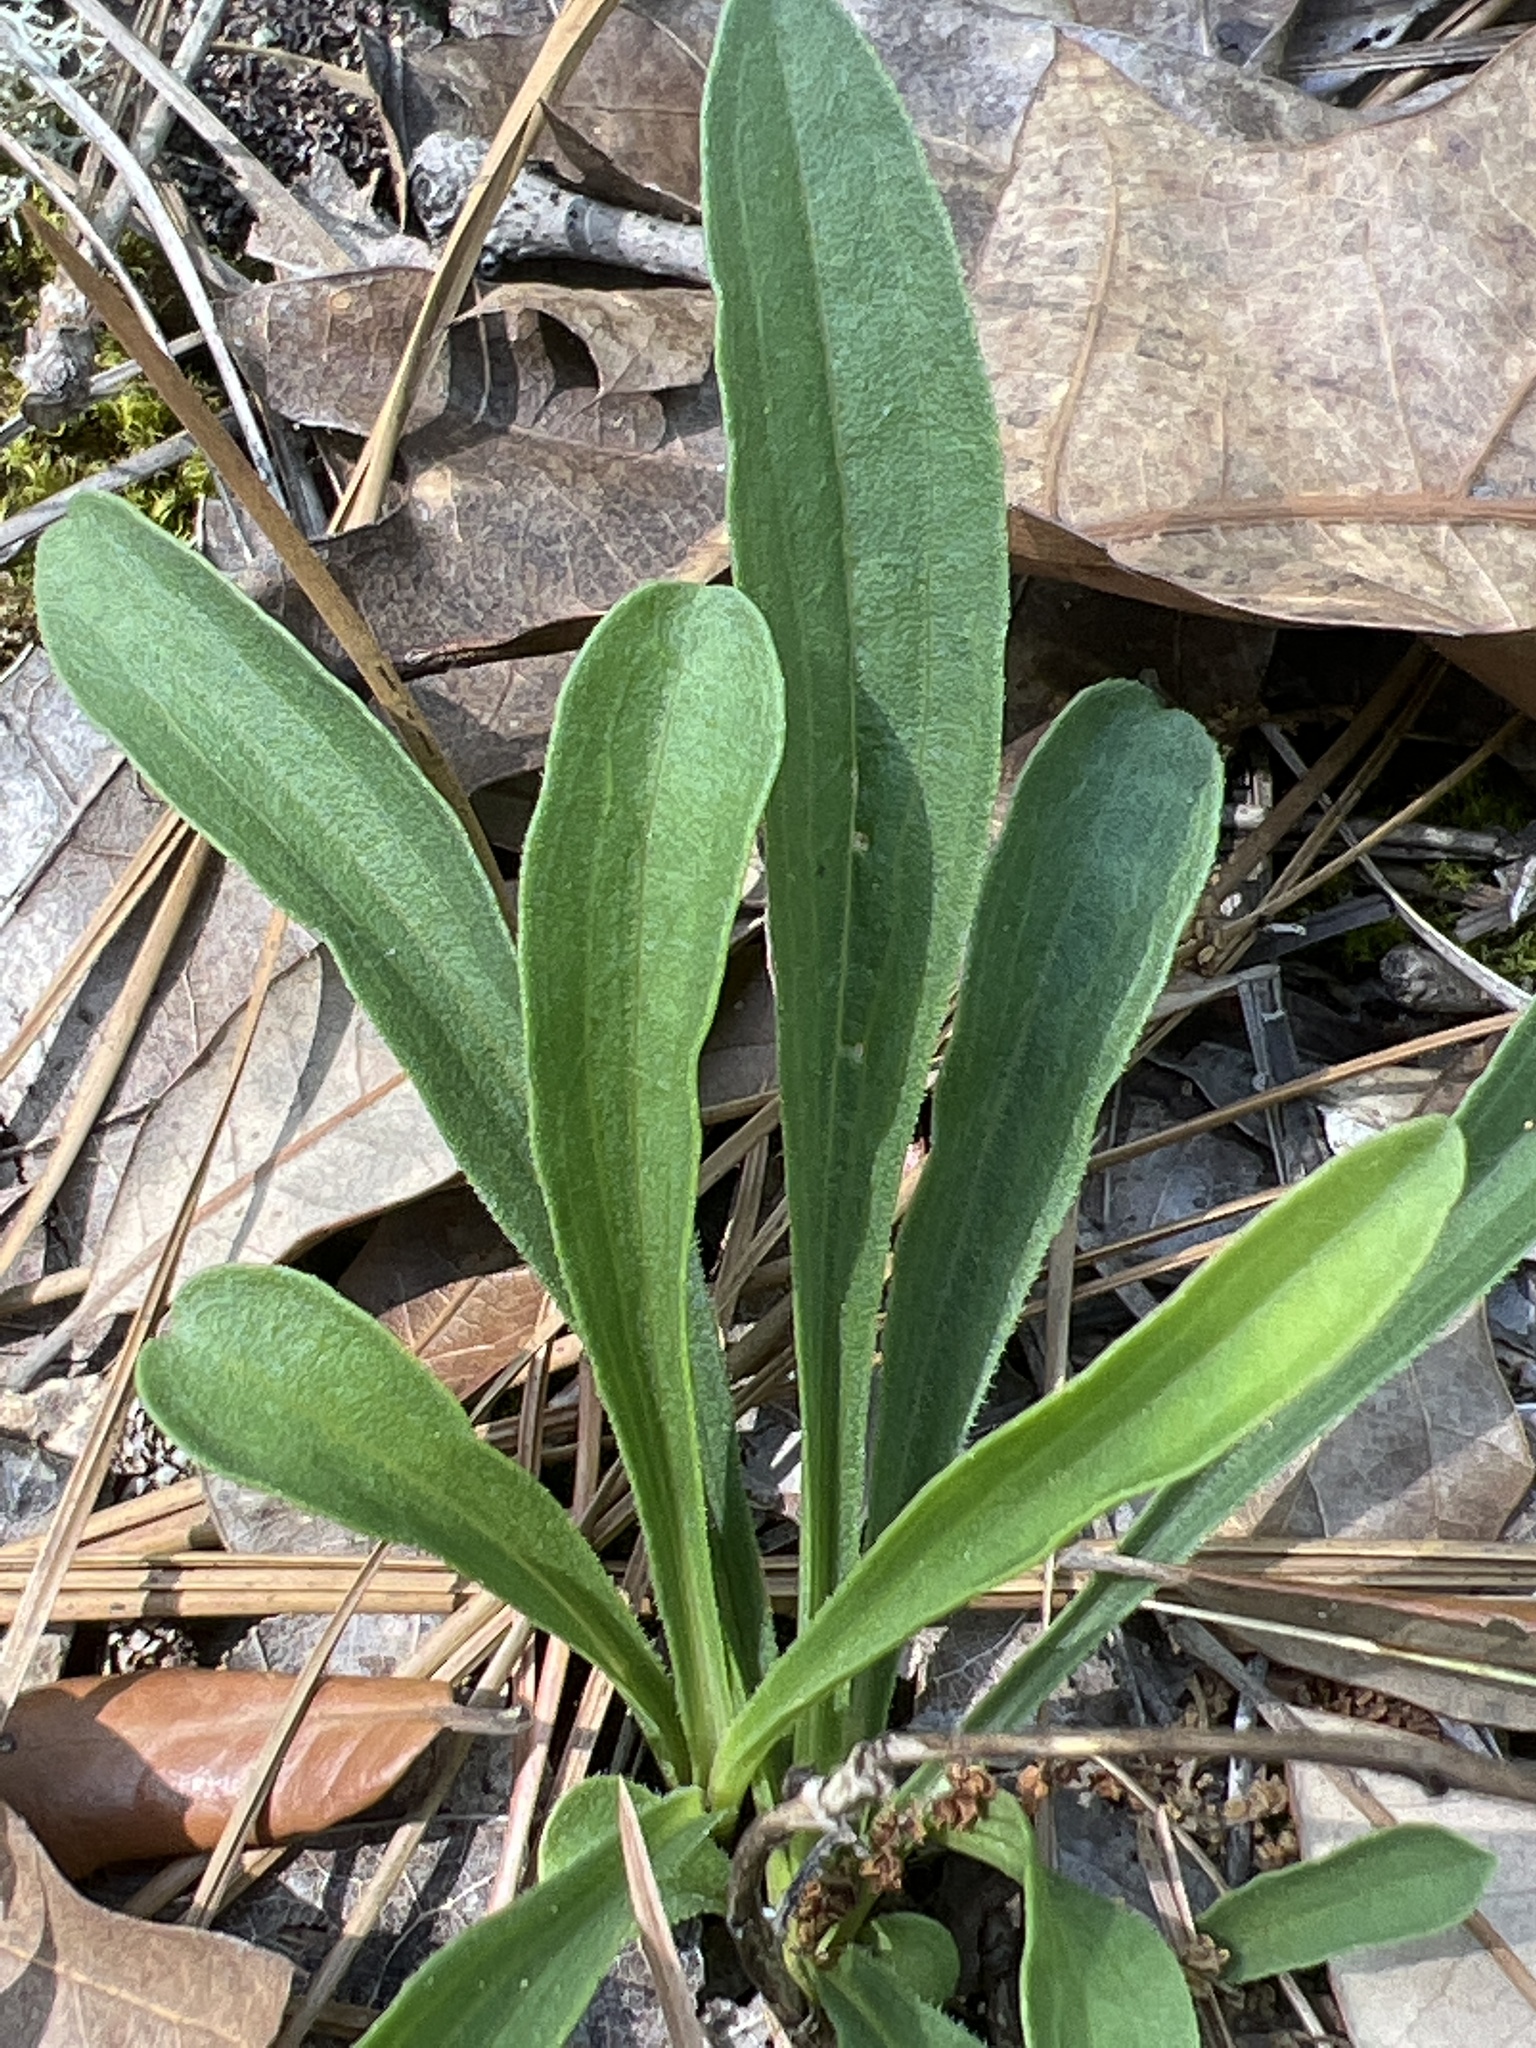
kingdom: Plantae
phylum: Tracheophyta
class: Magnoliopsida
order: Asterales
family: Asteraceae
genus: Carphephorus
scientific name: Carphephorus bellidifolius
